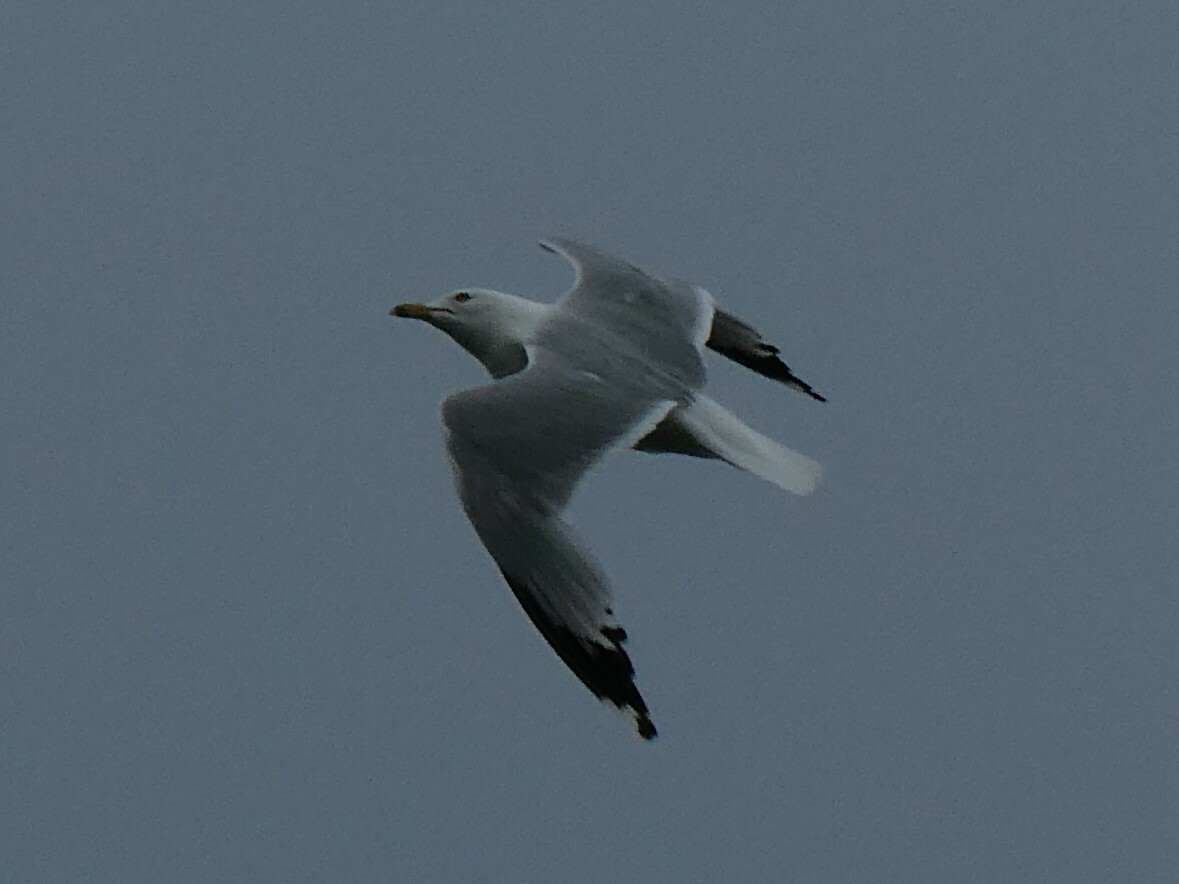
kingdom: Animalia
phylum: Chordata
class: Aves
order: Charadriiformes
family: Laridae
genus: Larus
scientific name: Larus delawarensis
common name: Ring-billed gull
